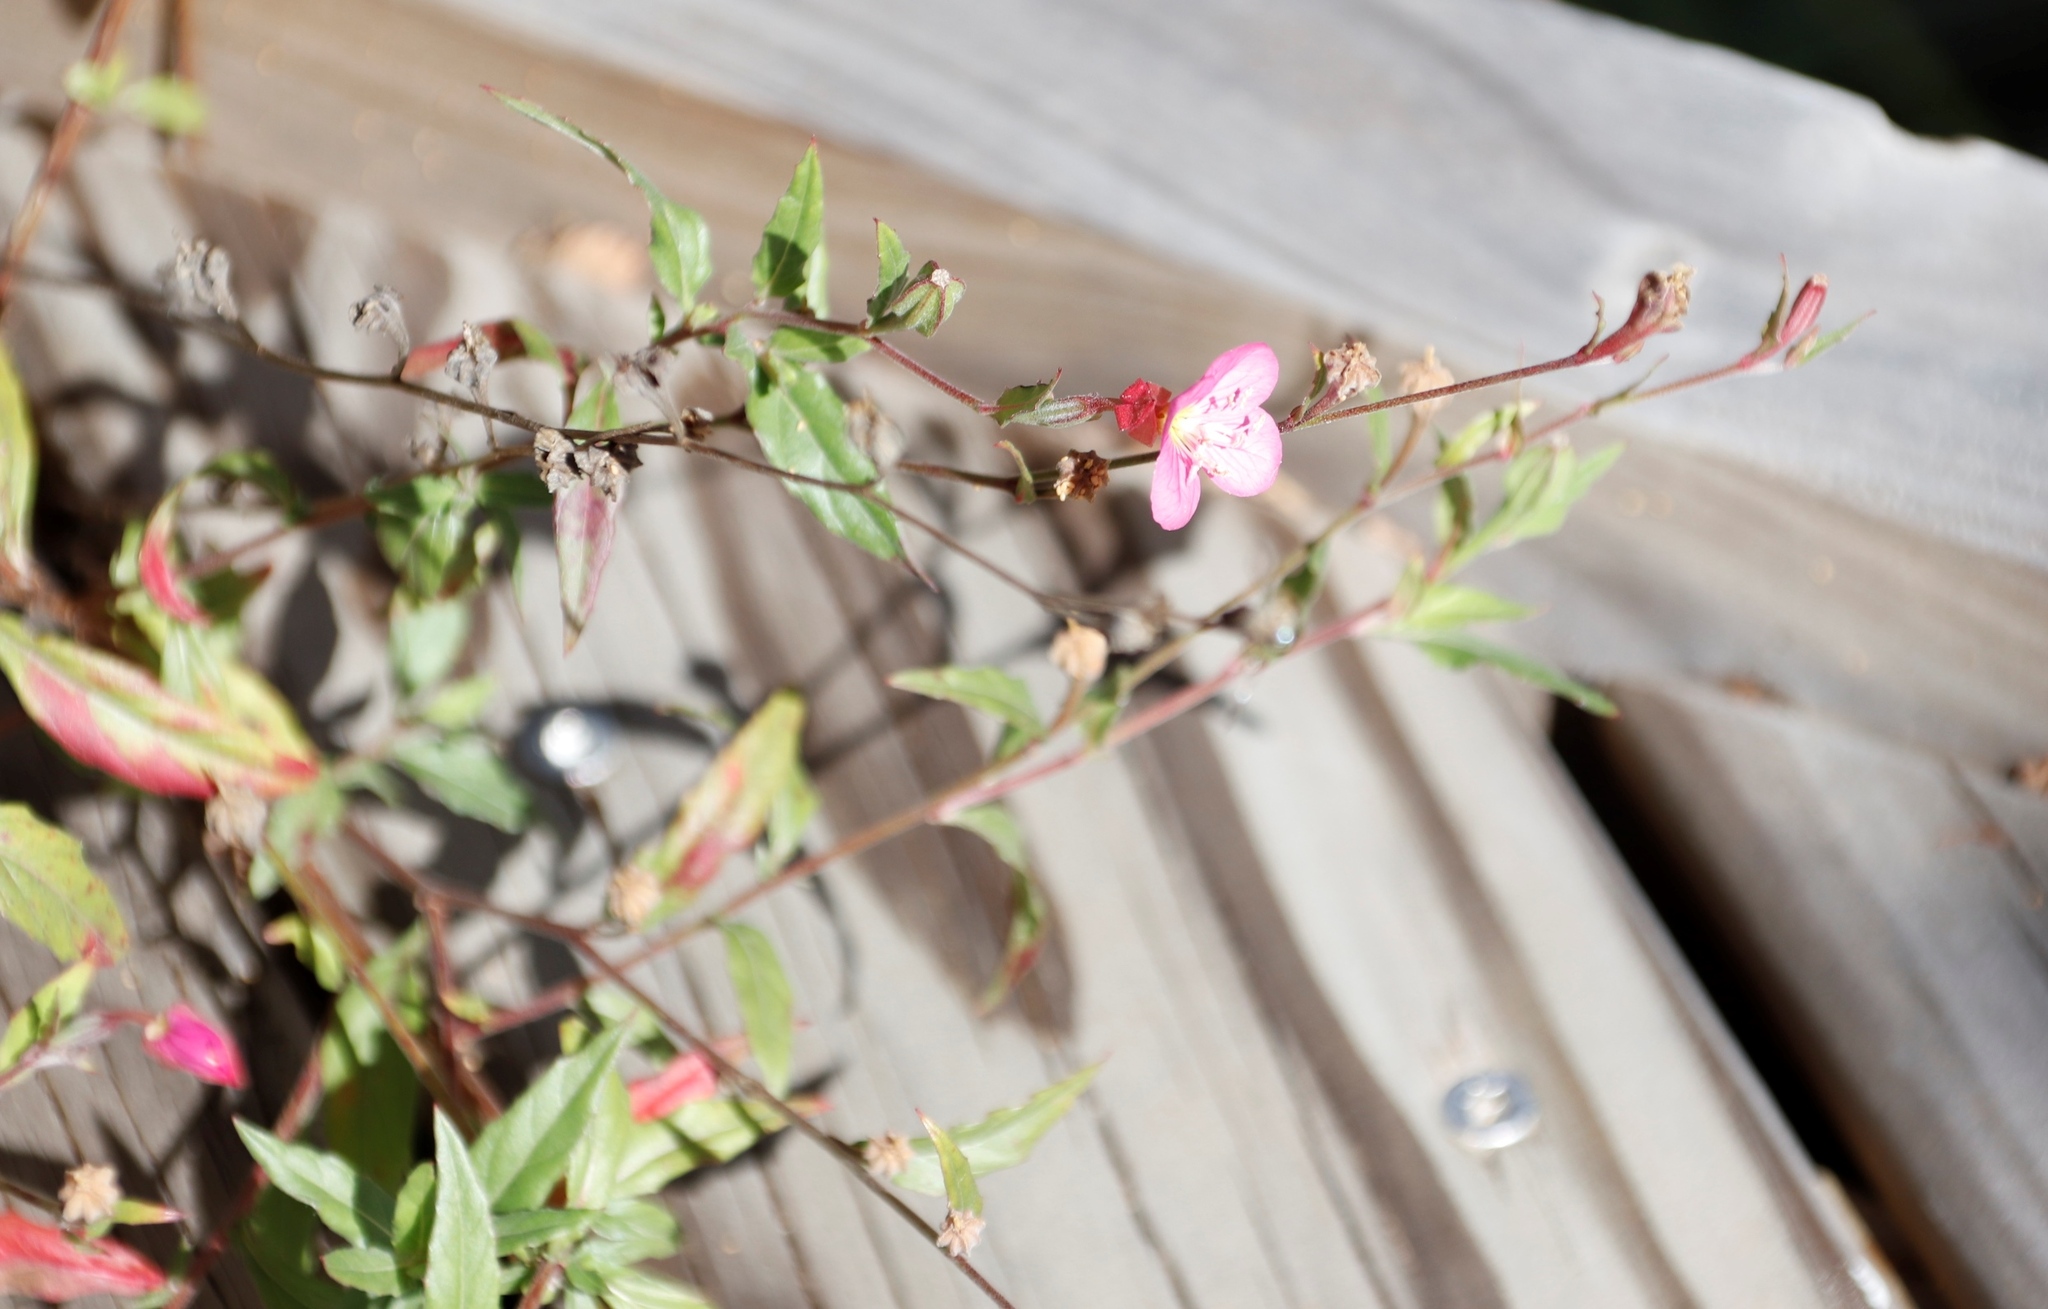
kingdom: Plantae
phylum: Tracheophyta
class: Magnoliopsida
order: Myrtales
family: Onagraceae
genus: Oenothera
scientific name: Oenothera rosea
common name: Rosy evening-primrose
